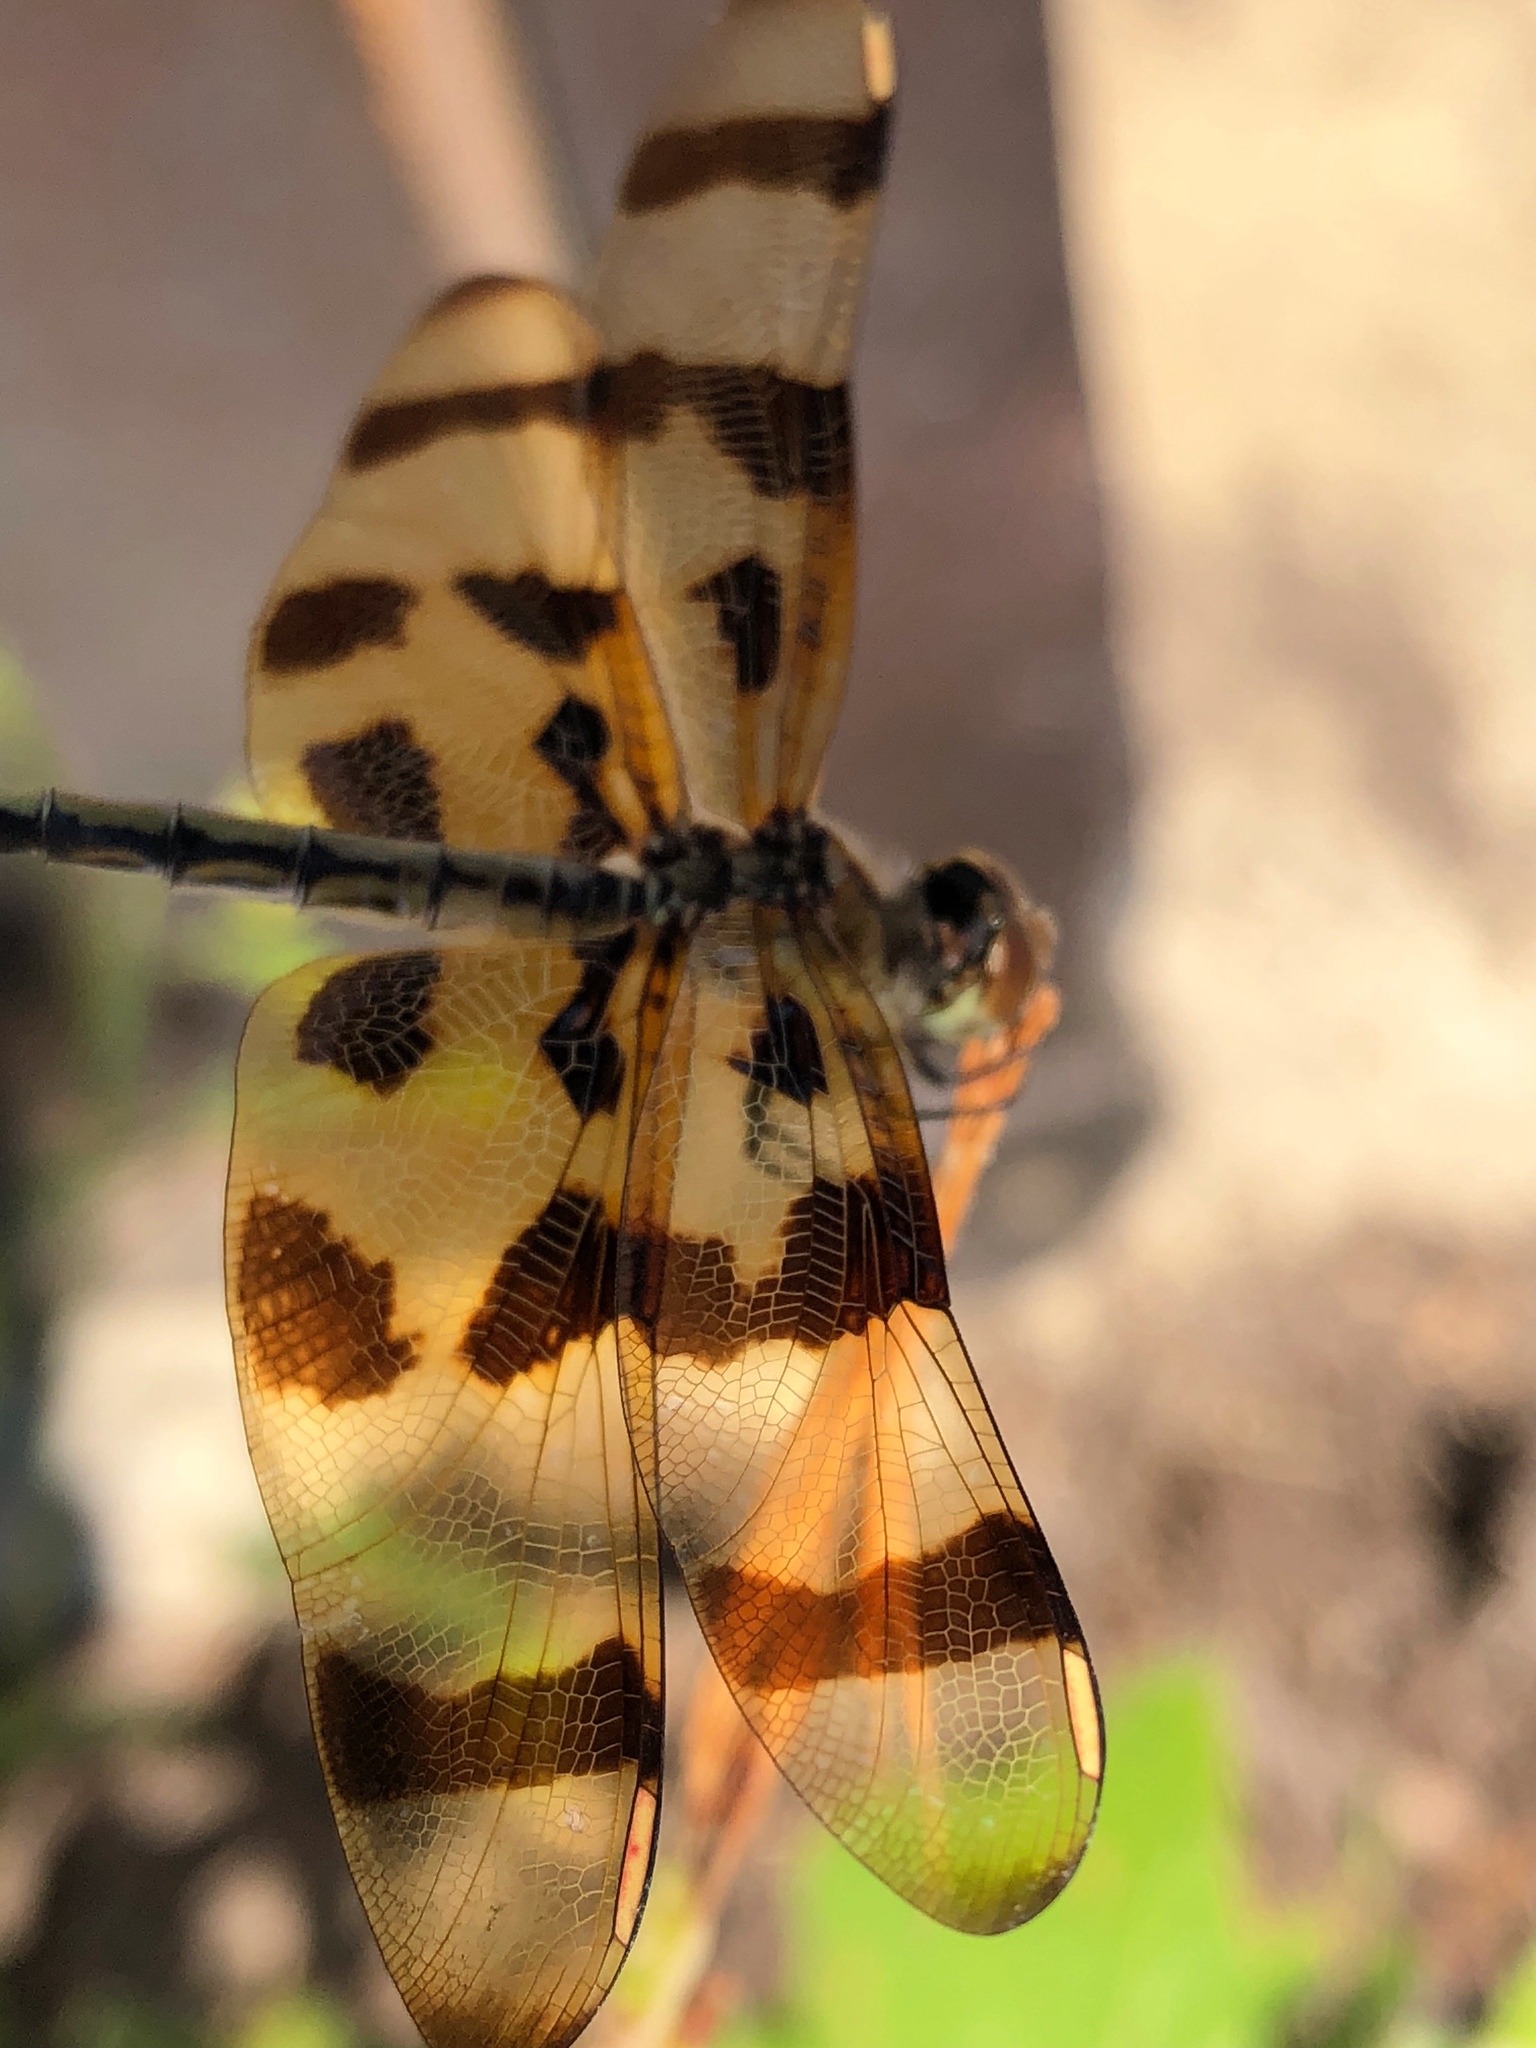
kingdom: Animalia
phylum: Arthropoda
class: Insecta
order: Odonata
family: Libellulidae
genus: Celithemis
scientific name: Celithemis eponina
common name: Halloween pennant
